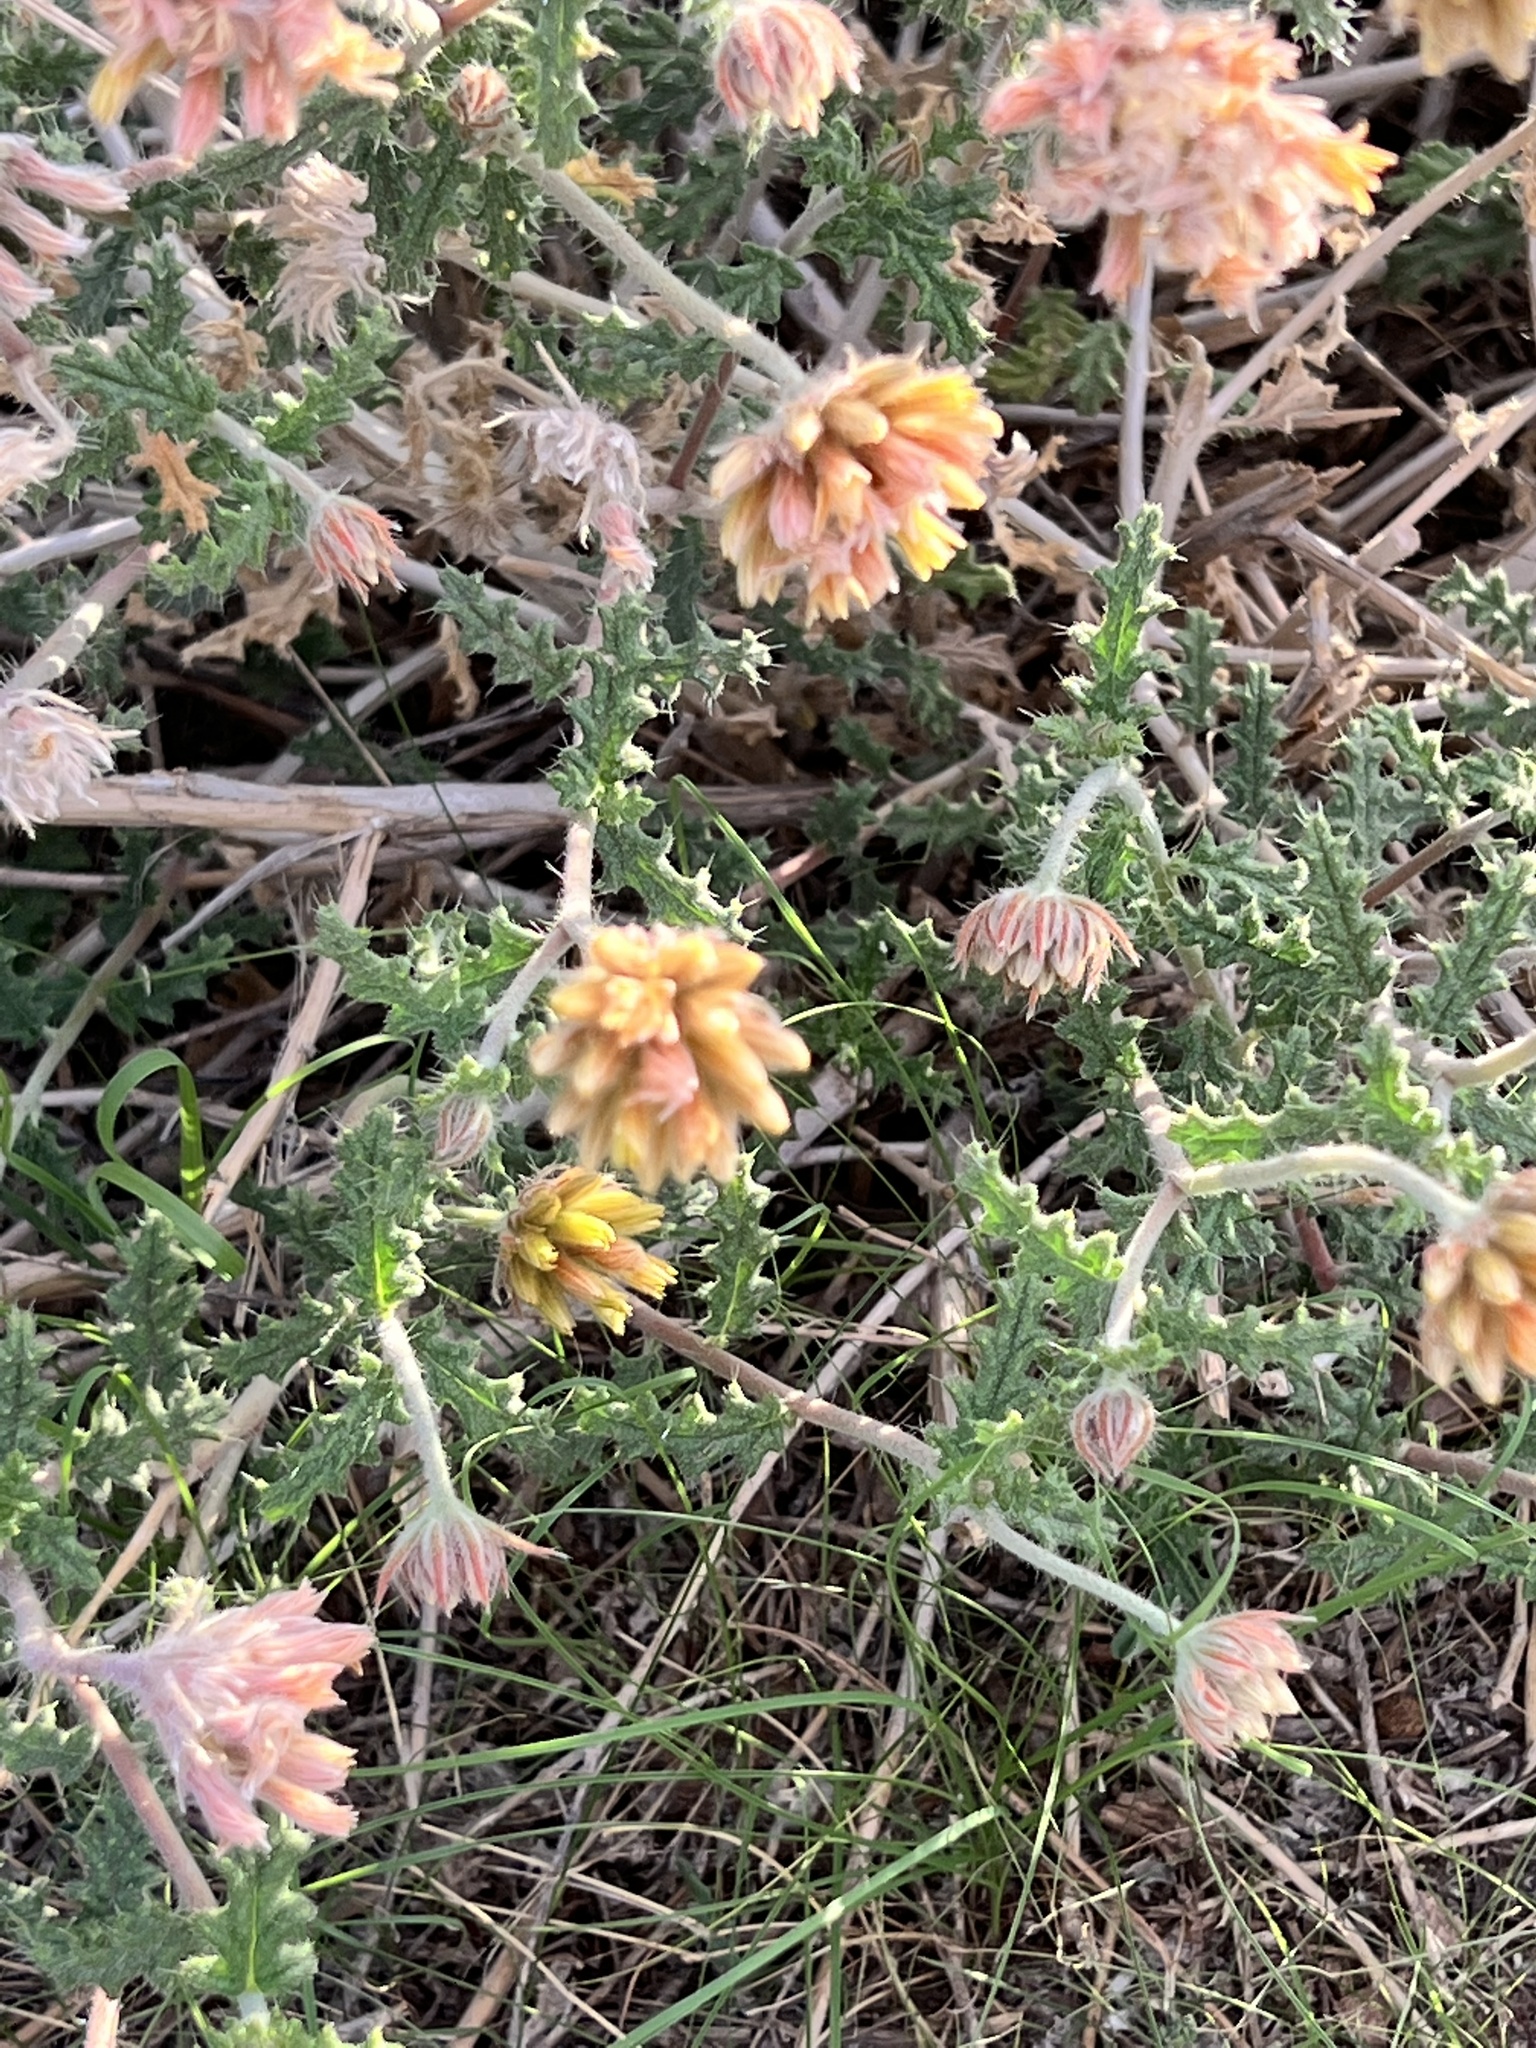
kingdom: Plantae
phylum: Tracheophyta
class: Magnoliopsida
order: Cornales
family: Loasaceae
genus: Cevallia
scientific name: Cevallia sinuata
